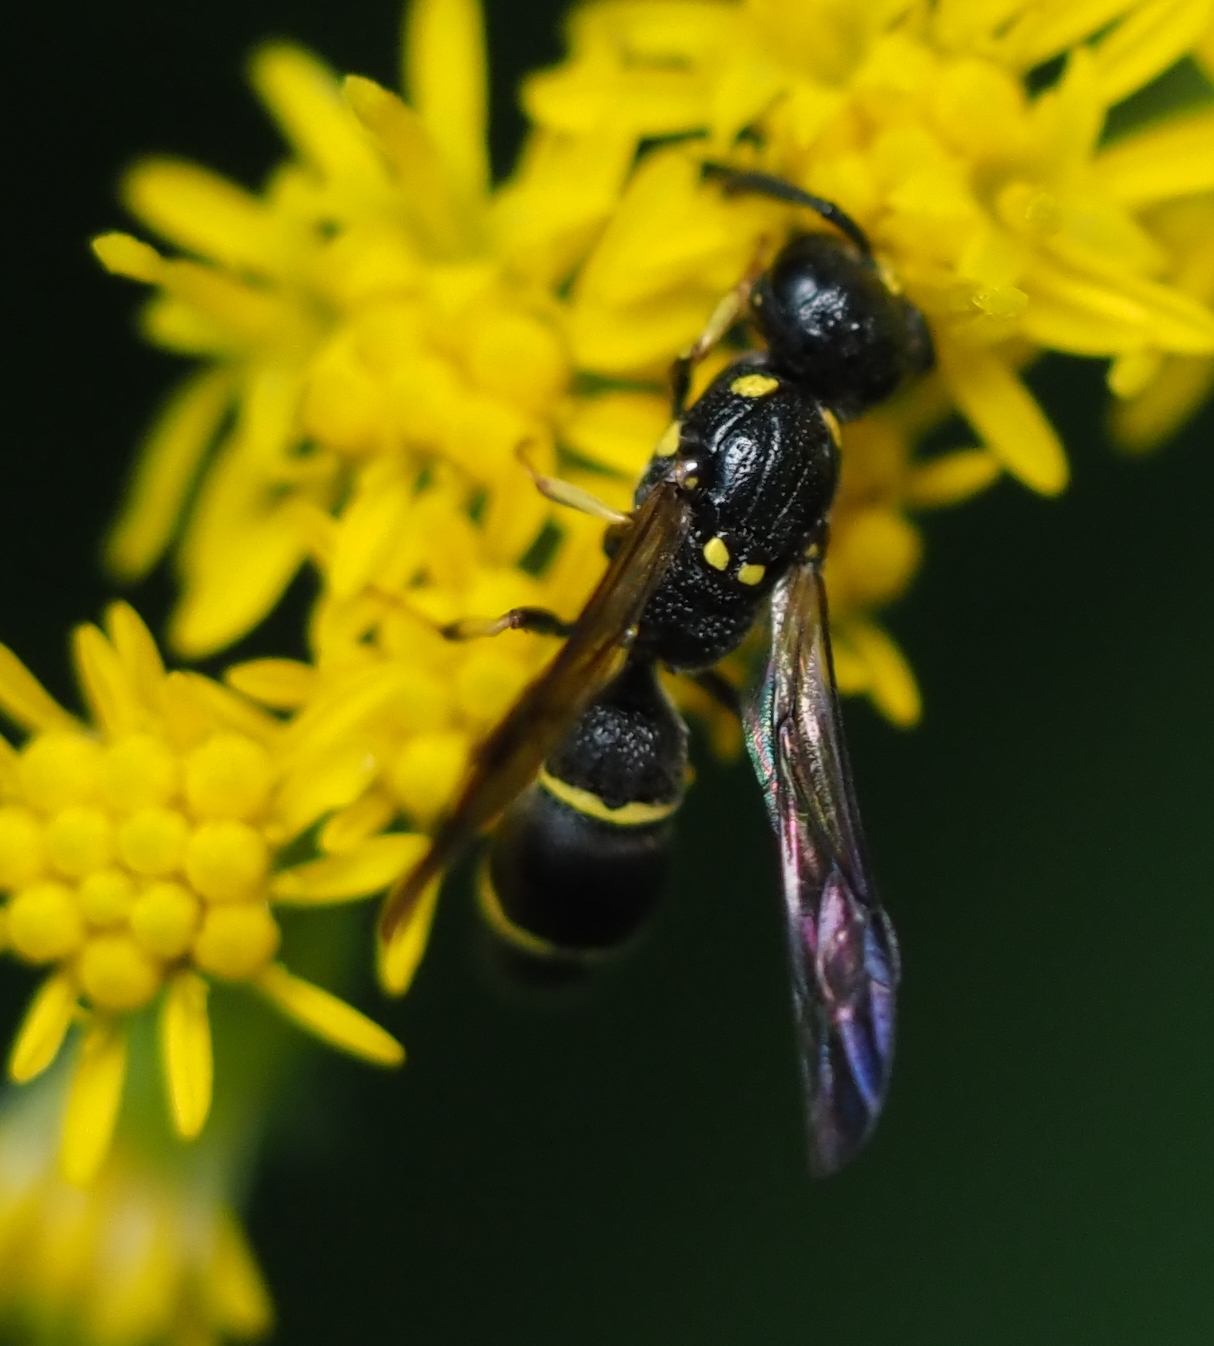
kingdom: Animalia
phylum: Arthropoda
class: Insecta
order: Hymenoptera
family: Eumenidae
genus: Symmorphus
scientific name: Symmorphus canadensis
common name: Canadian potter wasp
